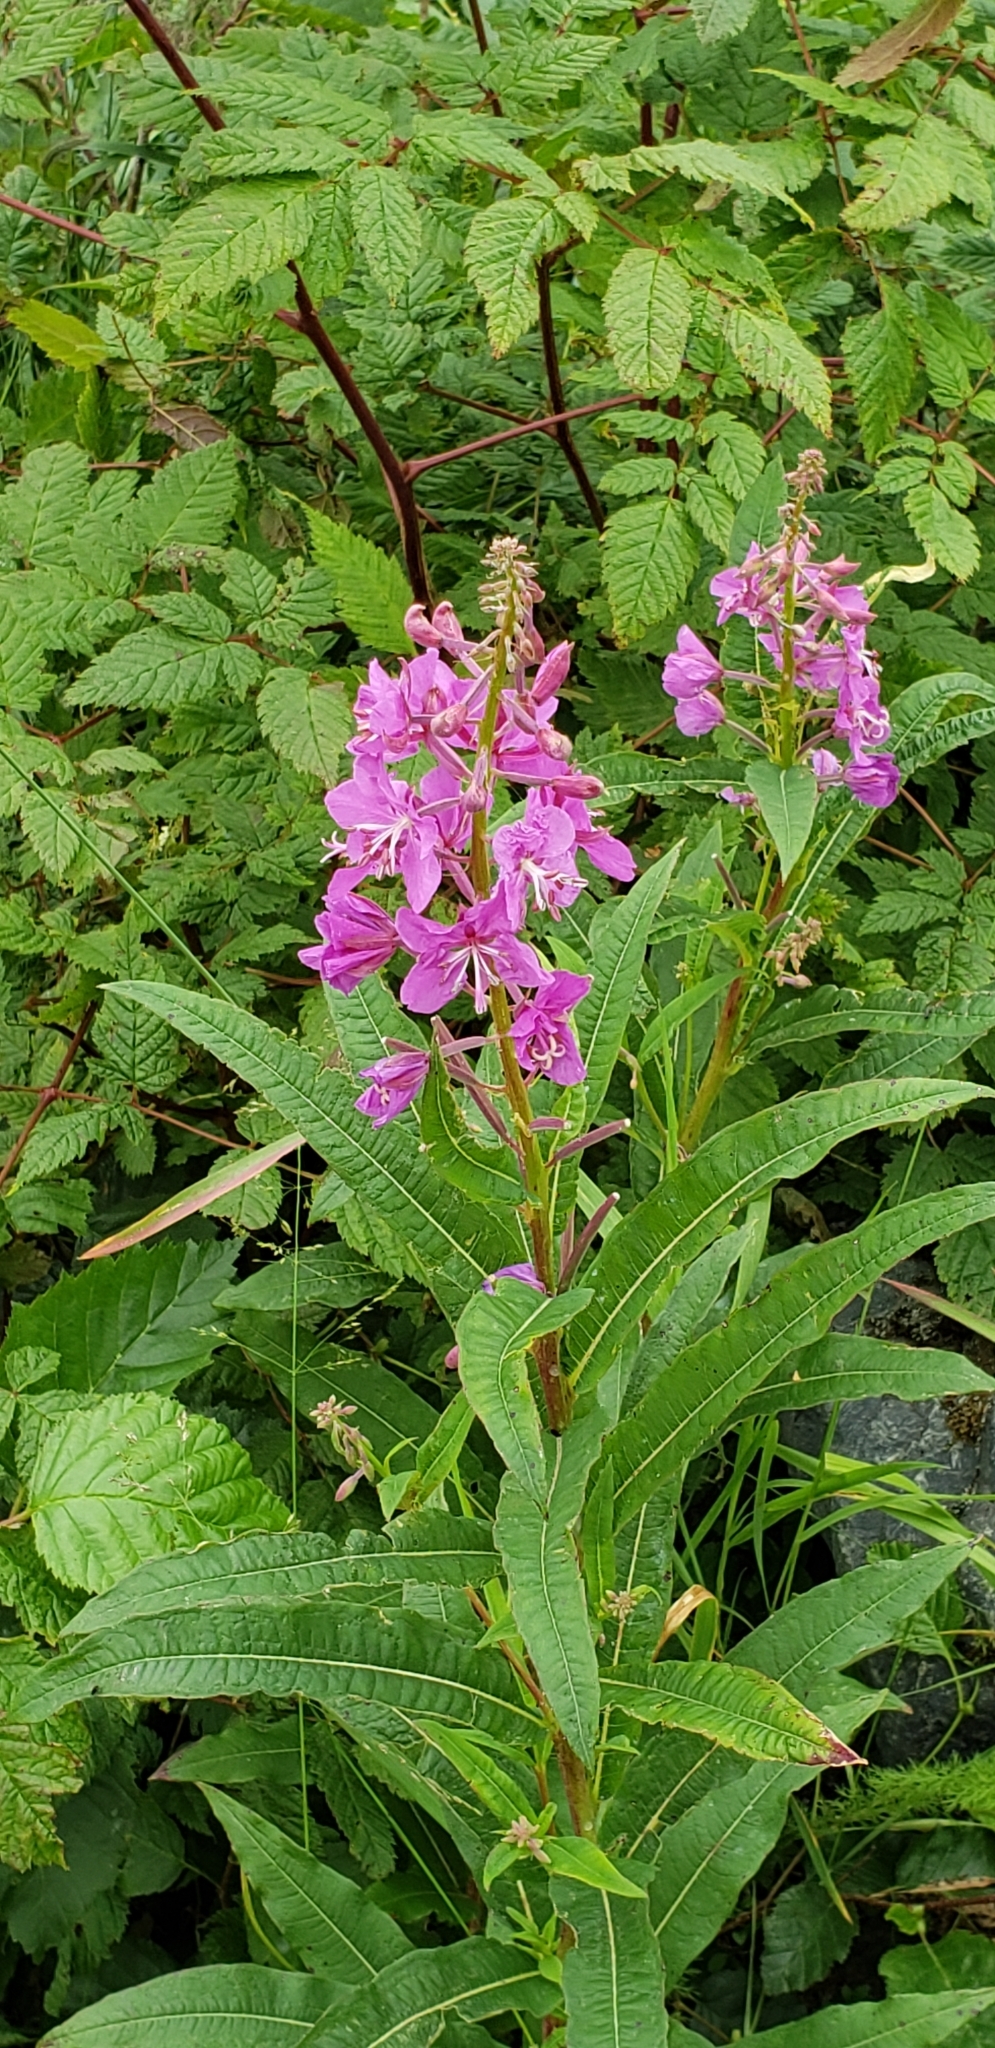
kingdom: Plantae
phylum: Tracheophyta
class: Magnoliopsida
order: Myrtales
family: Onagraceae
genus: Chamaenerion
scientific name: Chamaenerion angustifolium
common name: Fireweed
